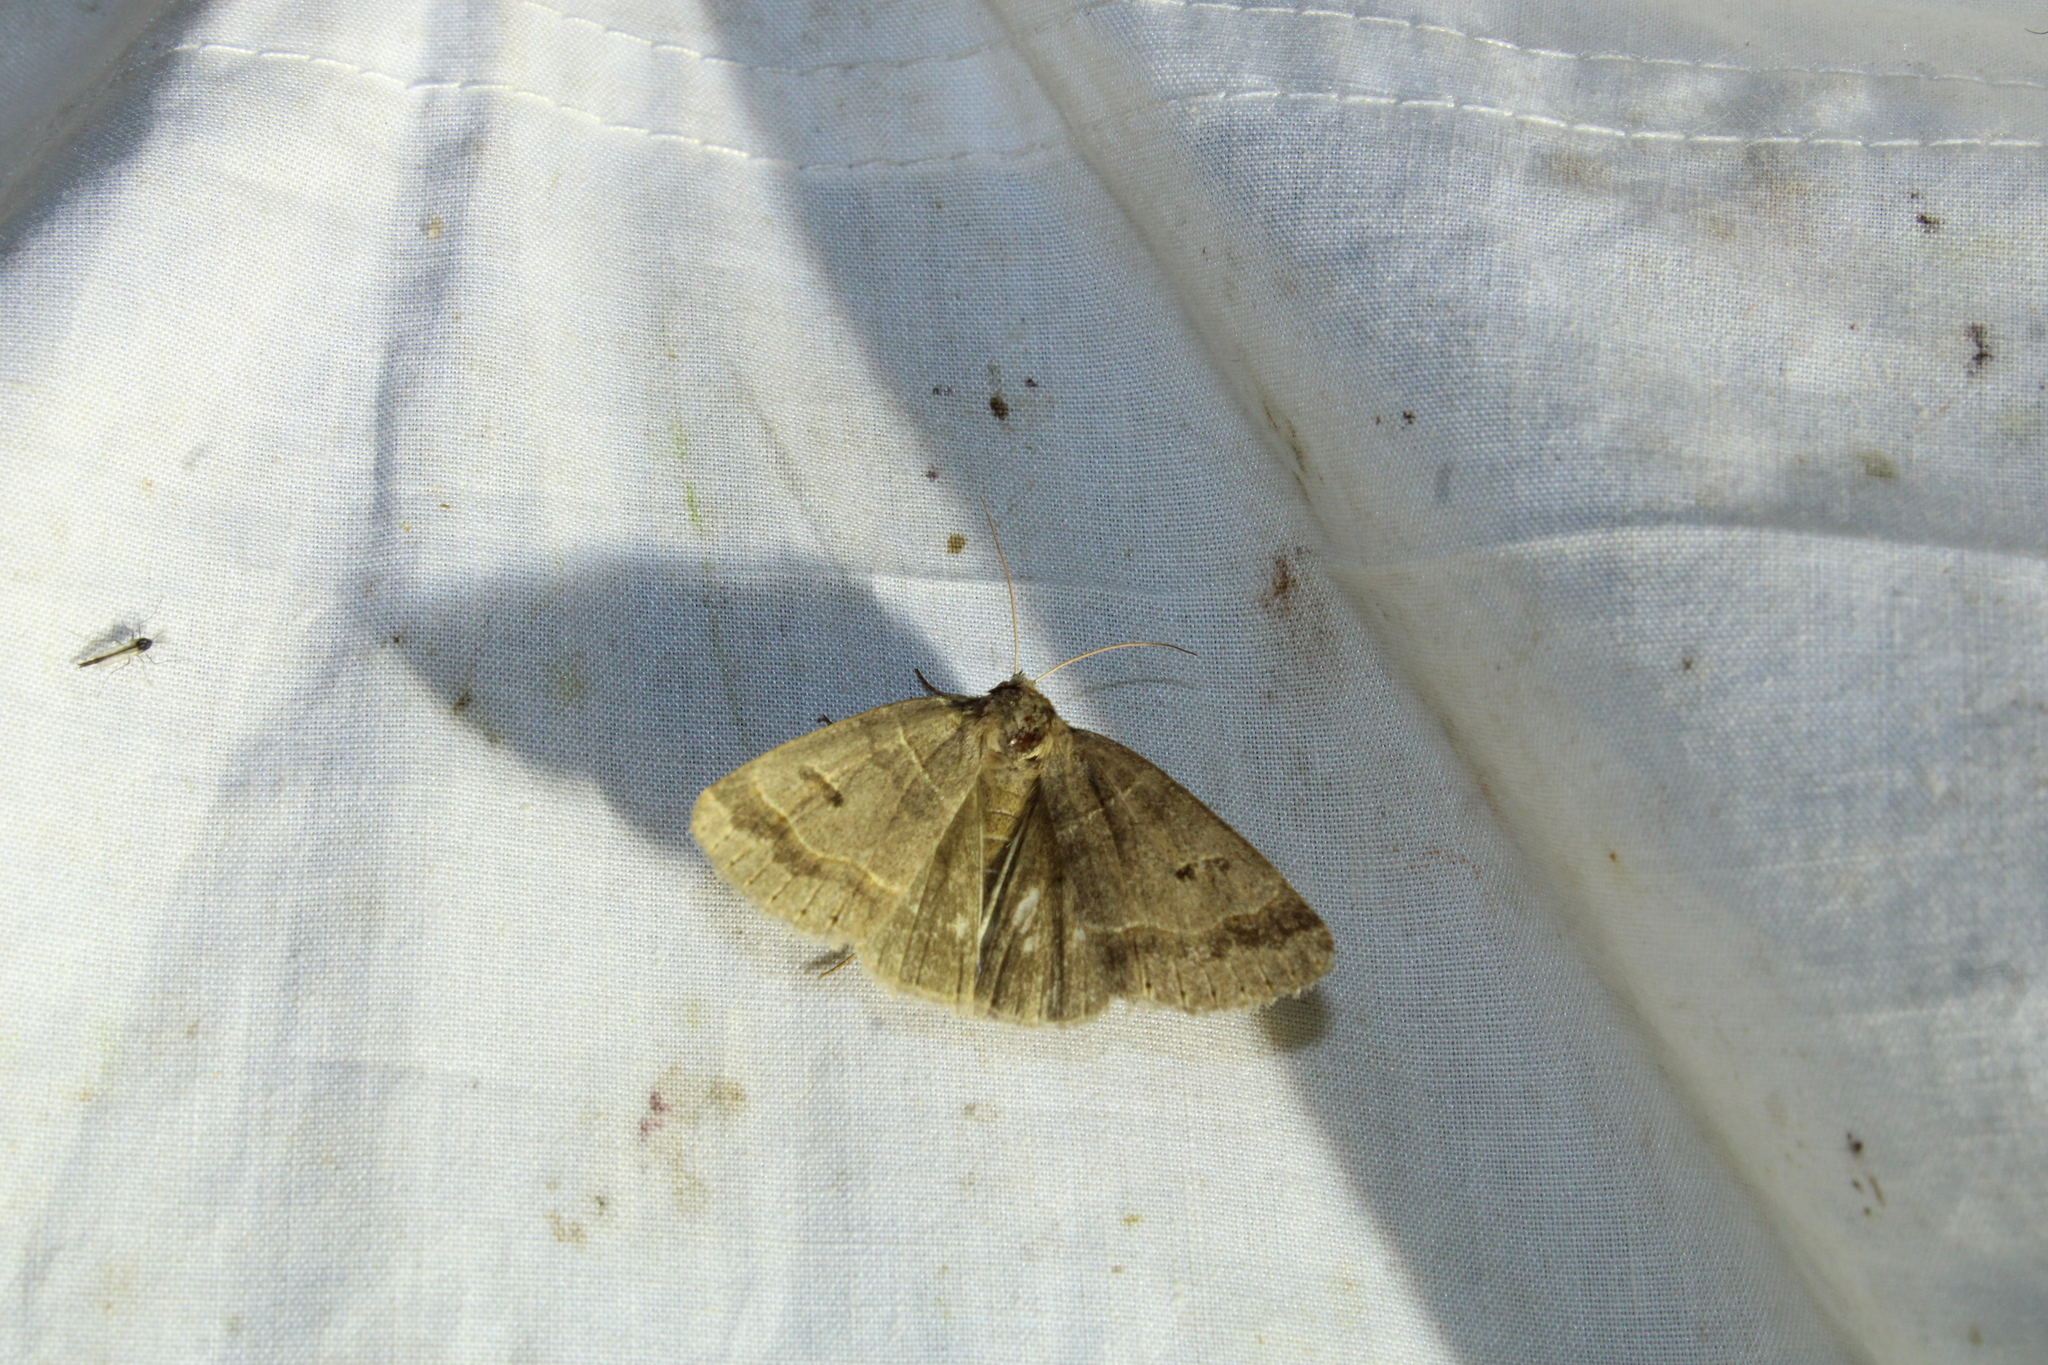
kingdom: Animalia
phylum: Arthropoda
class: Insecta
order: Lepidoptera
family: Erebidae
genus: Phoberia
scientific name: Phoberia atomaris
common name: Common oak moth
